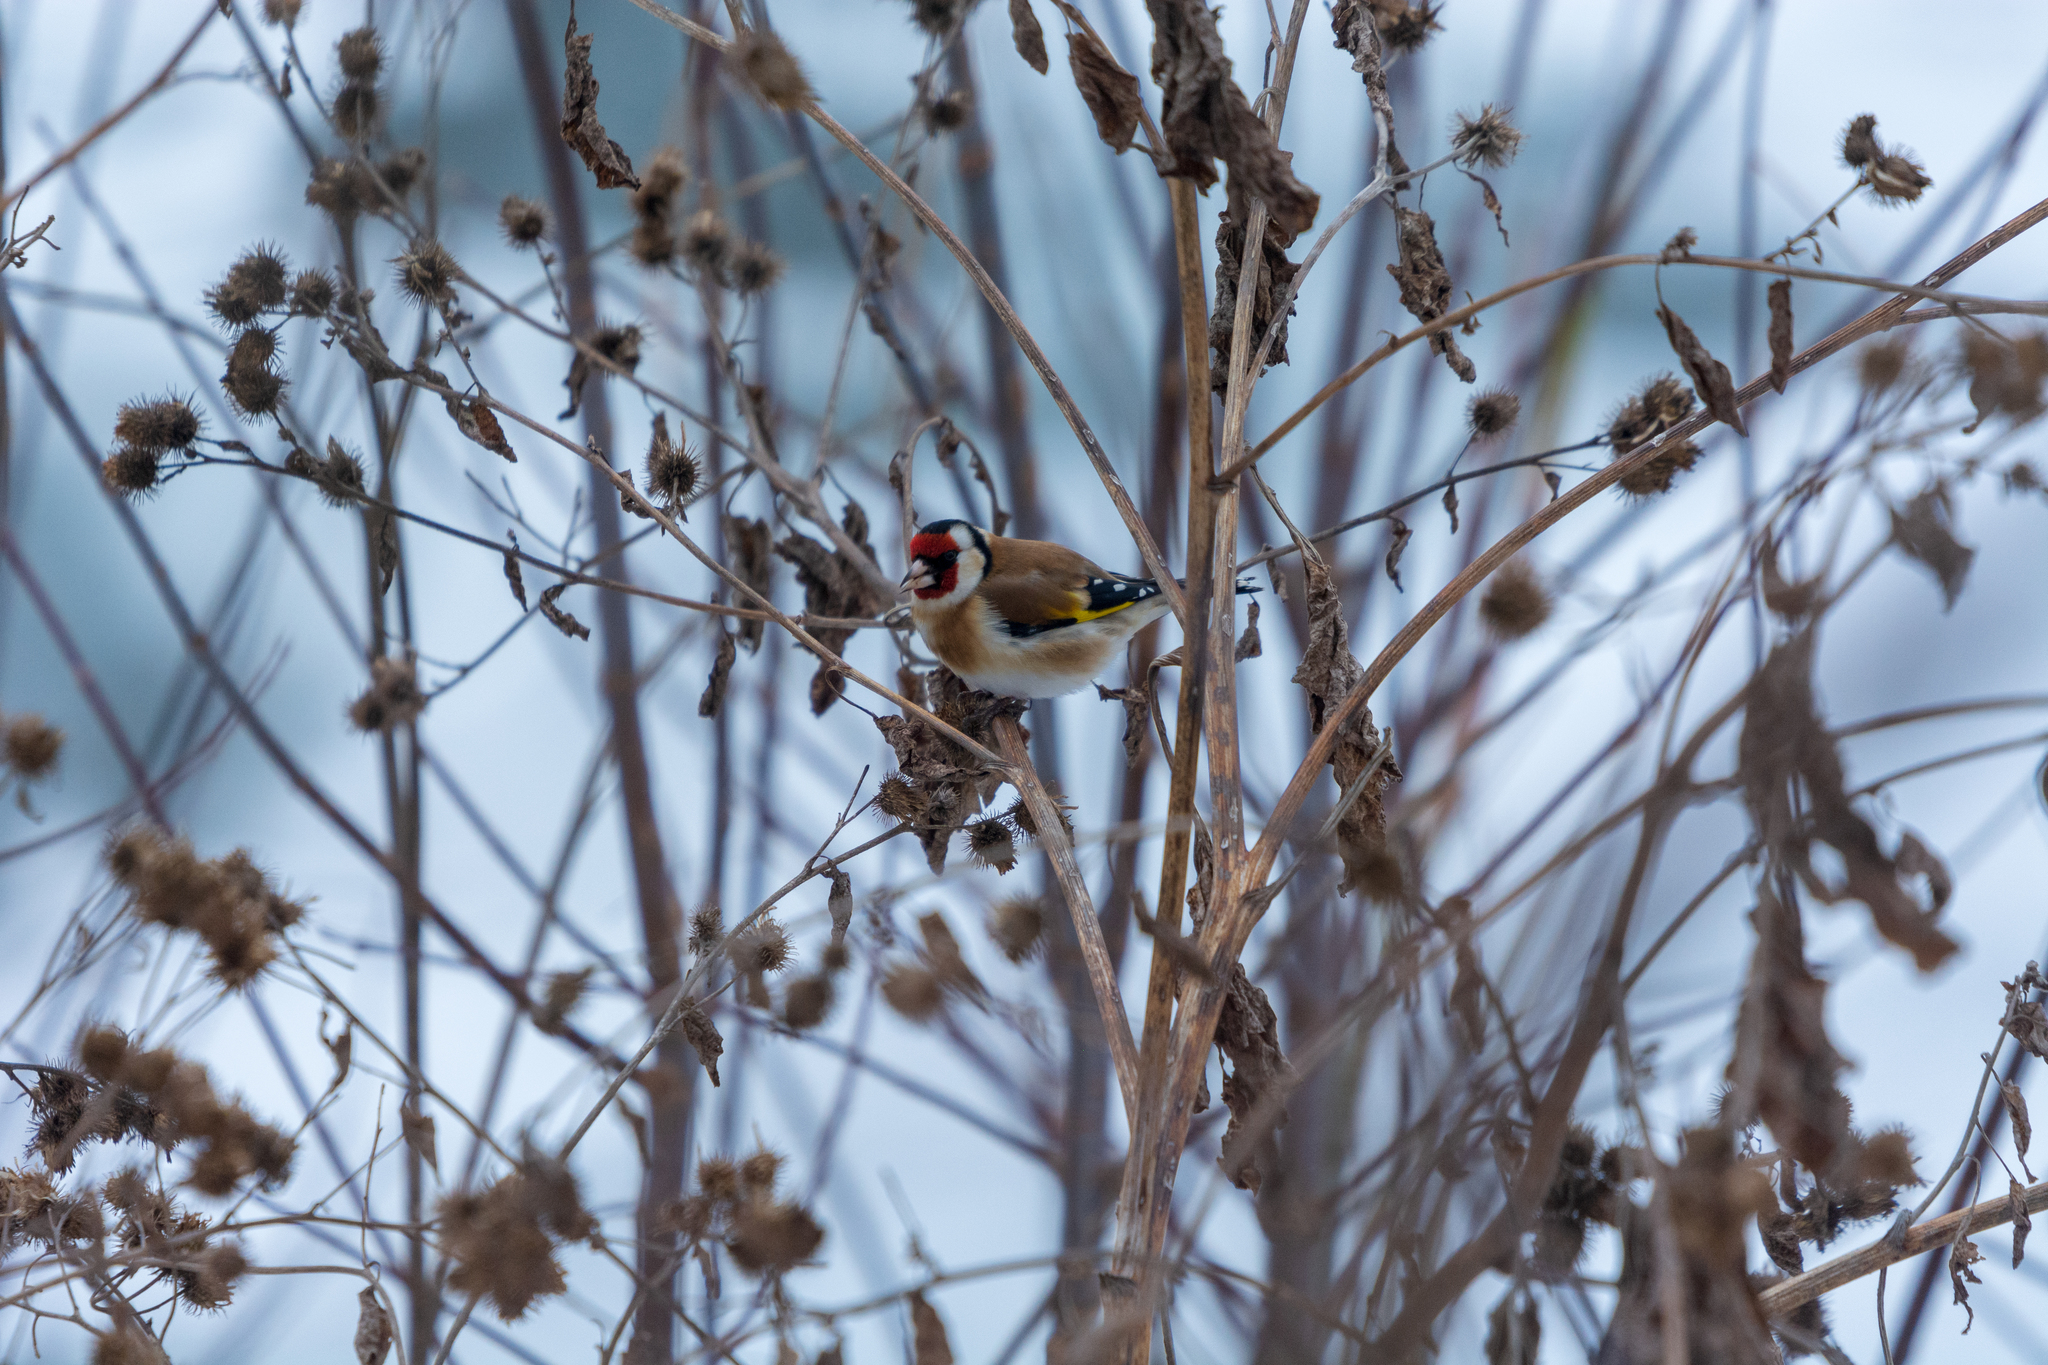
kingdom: Animalia
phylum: Chordata
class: Aves
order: Passeriformes
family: Fringillidae
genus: Carduelis
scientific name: Carduelis carduelis
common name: European goldfinch
